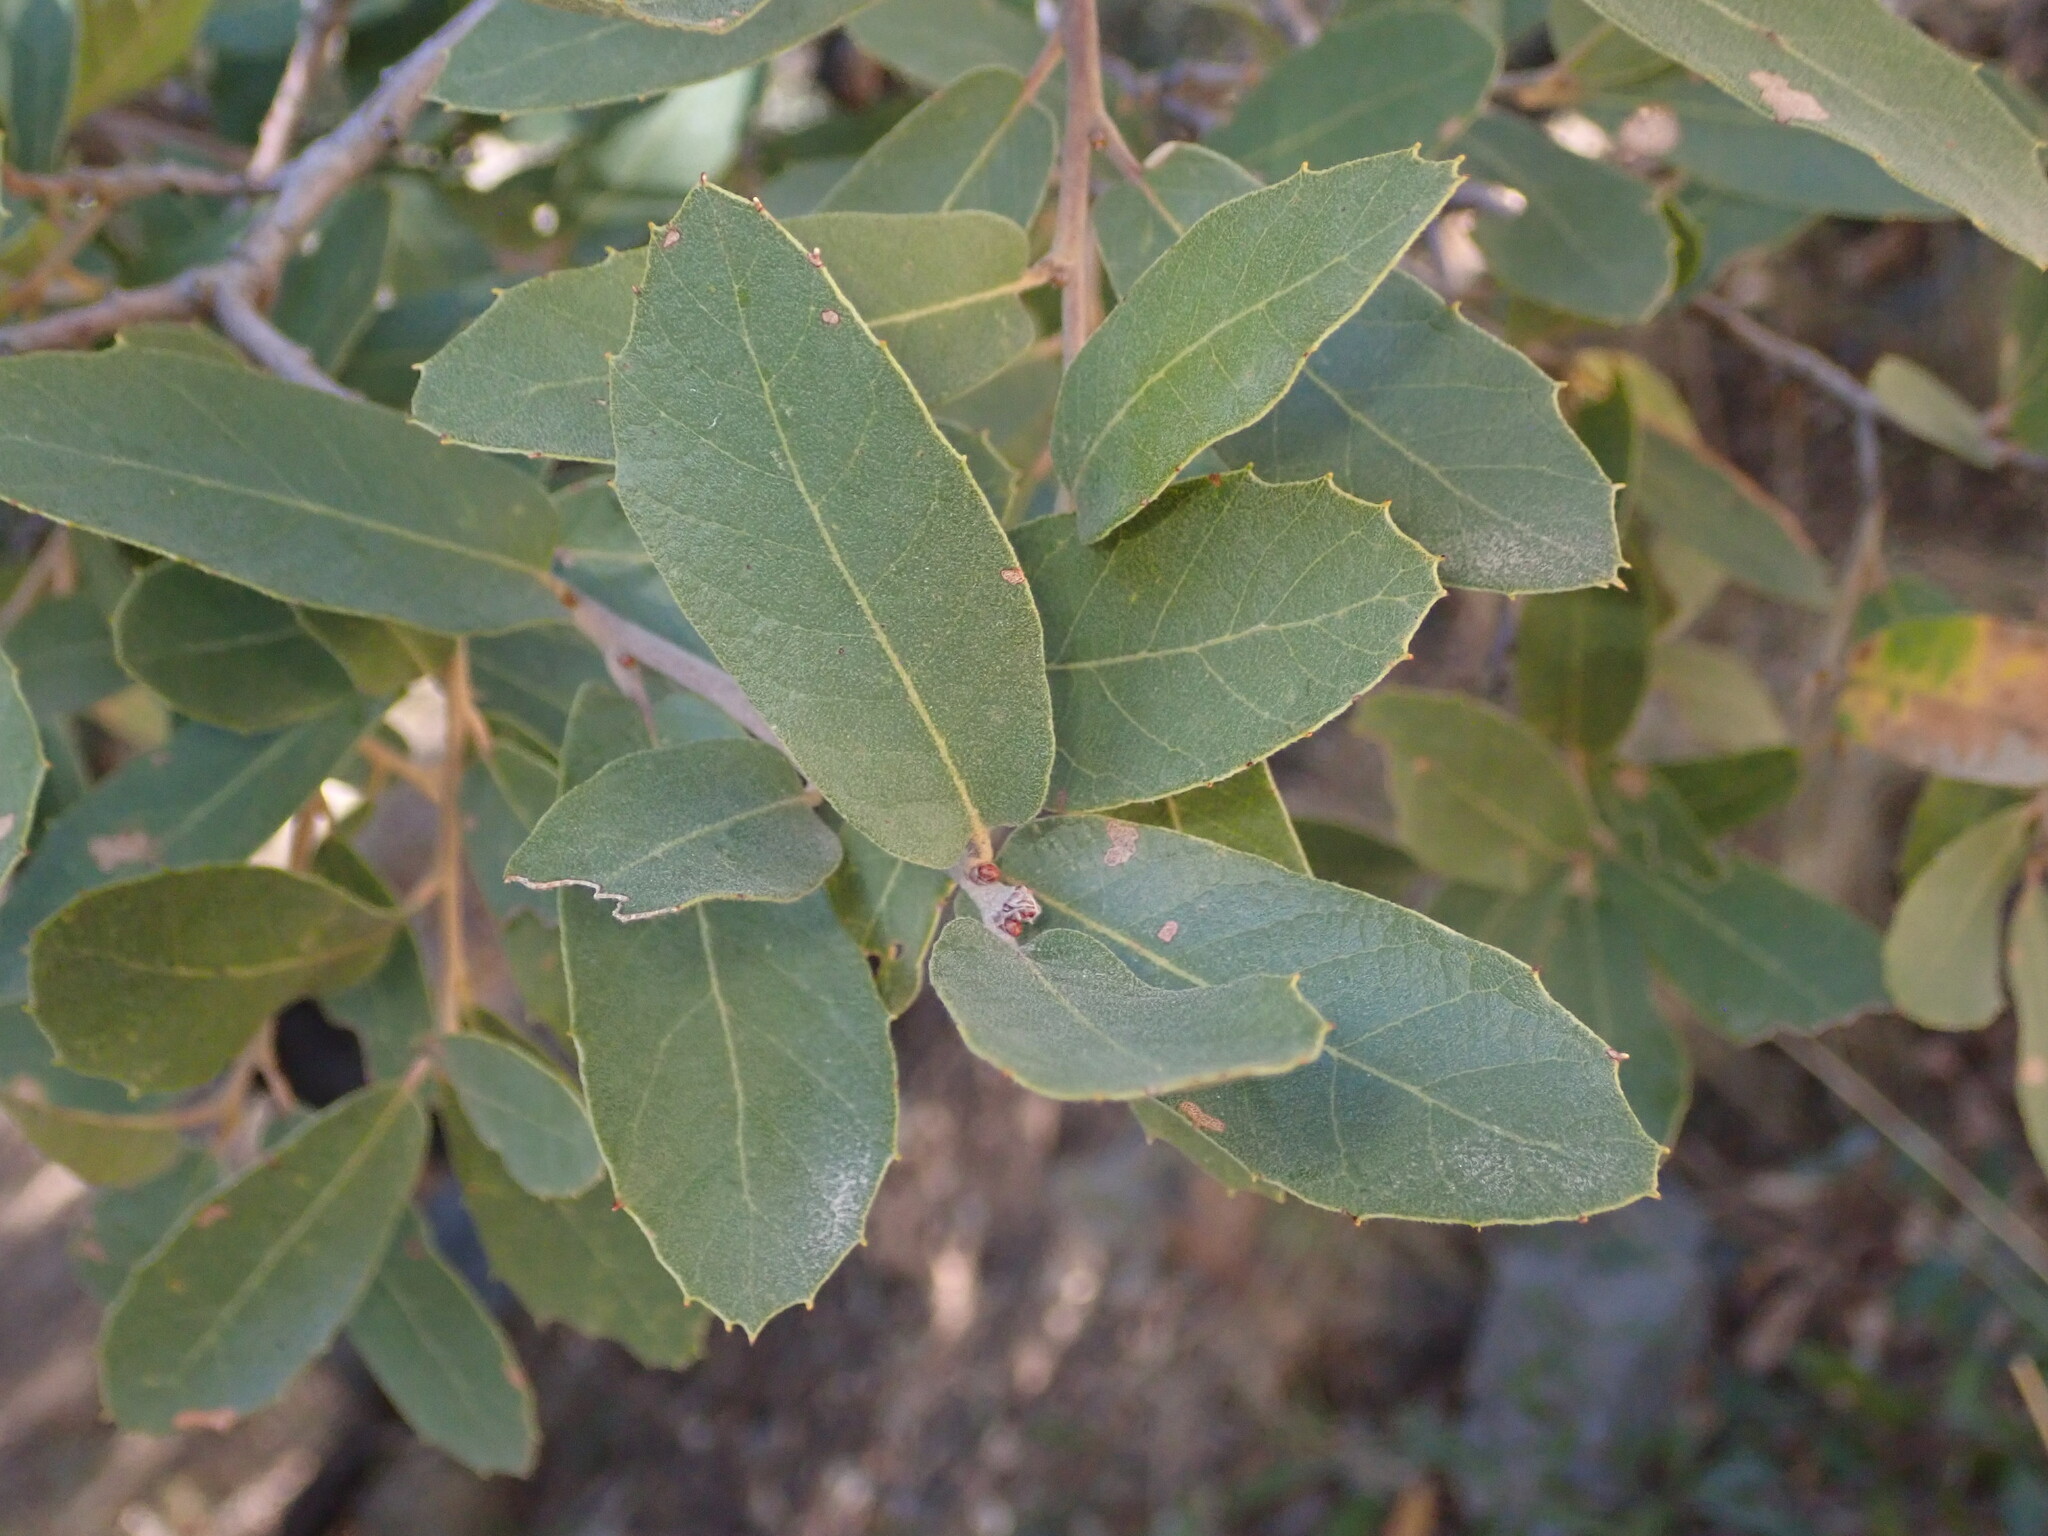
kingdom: Plantae
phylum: Tracheophyta
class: Magnoliopsida
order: Fagales
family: Fagaceae
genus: Quercus
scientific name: Quercus arizonica
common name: Arizona white oak
